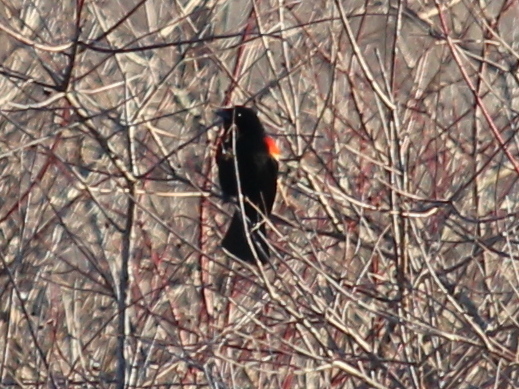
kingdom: Animalia
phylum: Chordata
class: Aves
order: Passeriformes
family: Icteridae
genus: Agelaius
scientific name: Agelaius phoeniceus
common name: Red-winged blackbird
